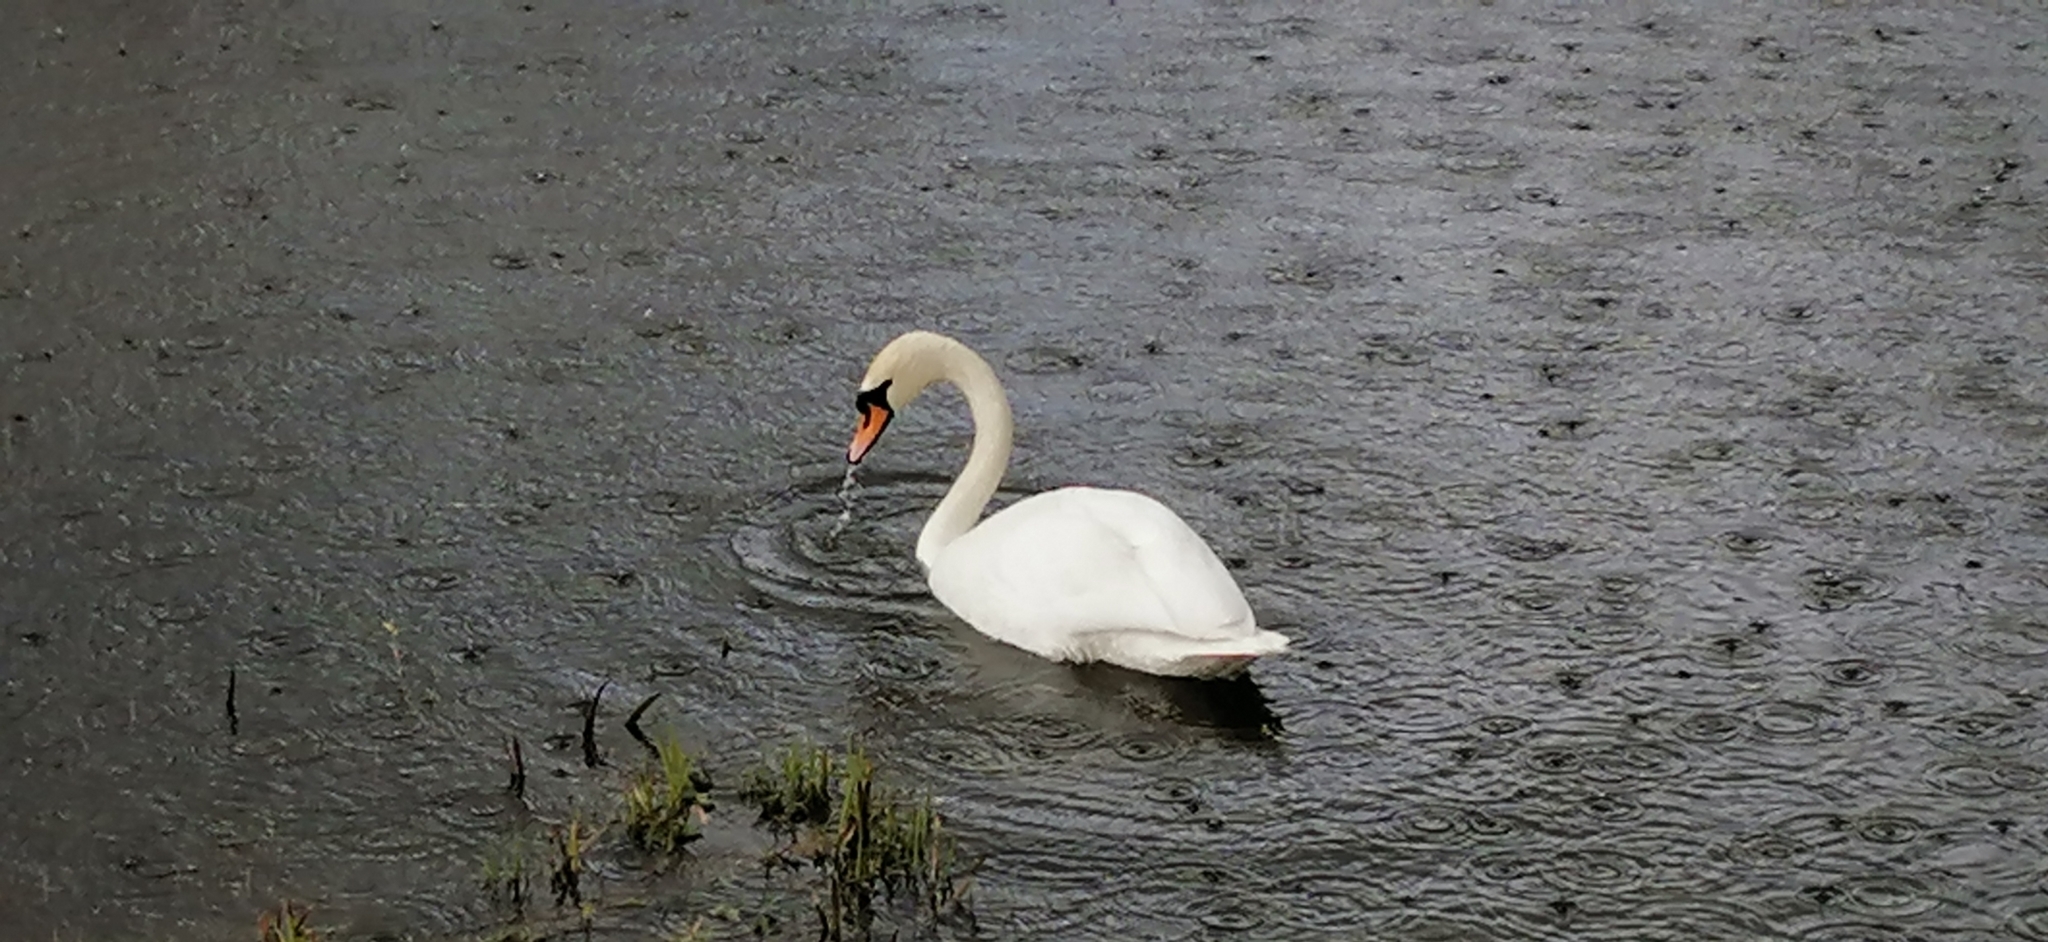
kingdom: Animalia
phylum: Chordata
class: Aves
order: Anseriformes
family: Anatidae
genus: Cygnus
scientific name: Cygnus olor
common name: Mute swan
